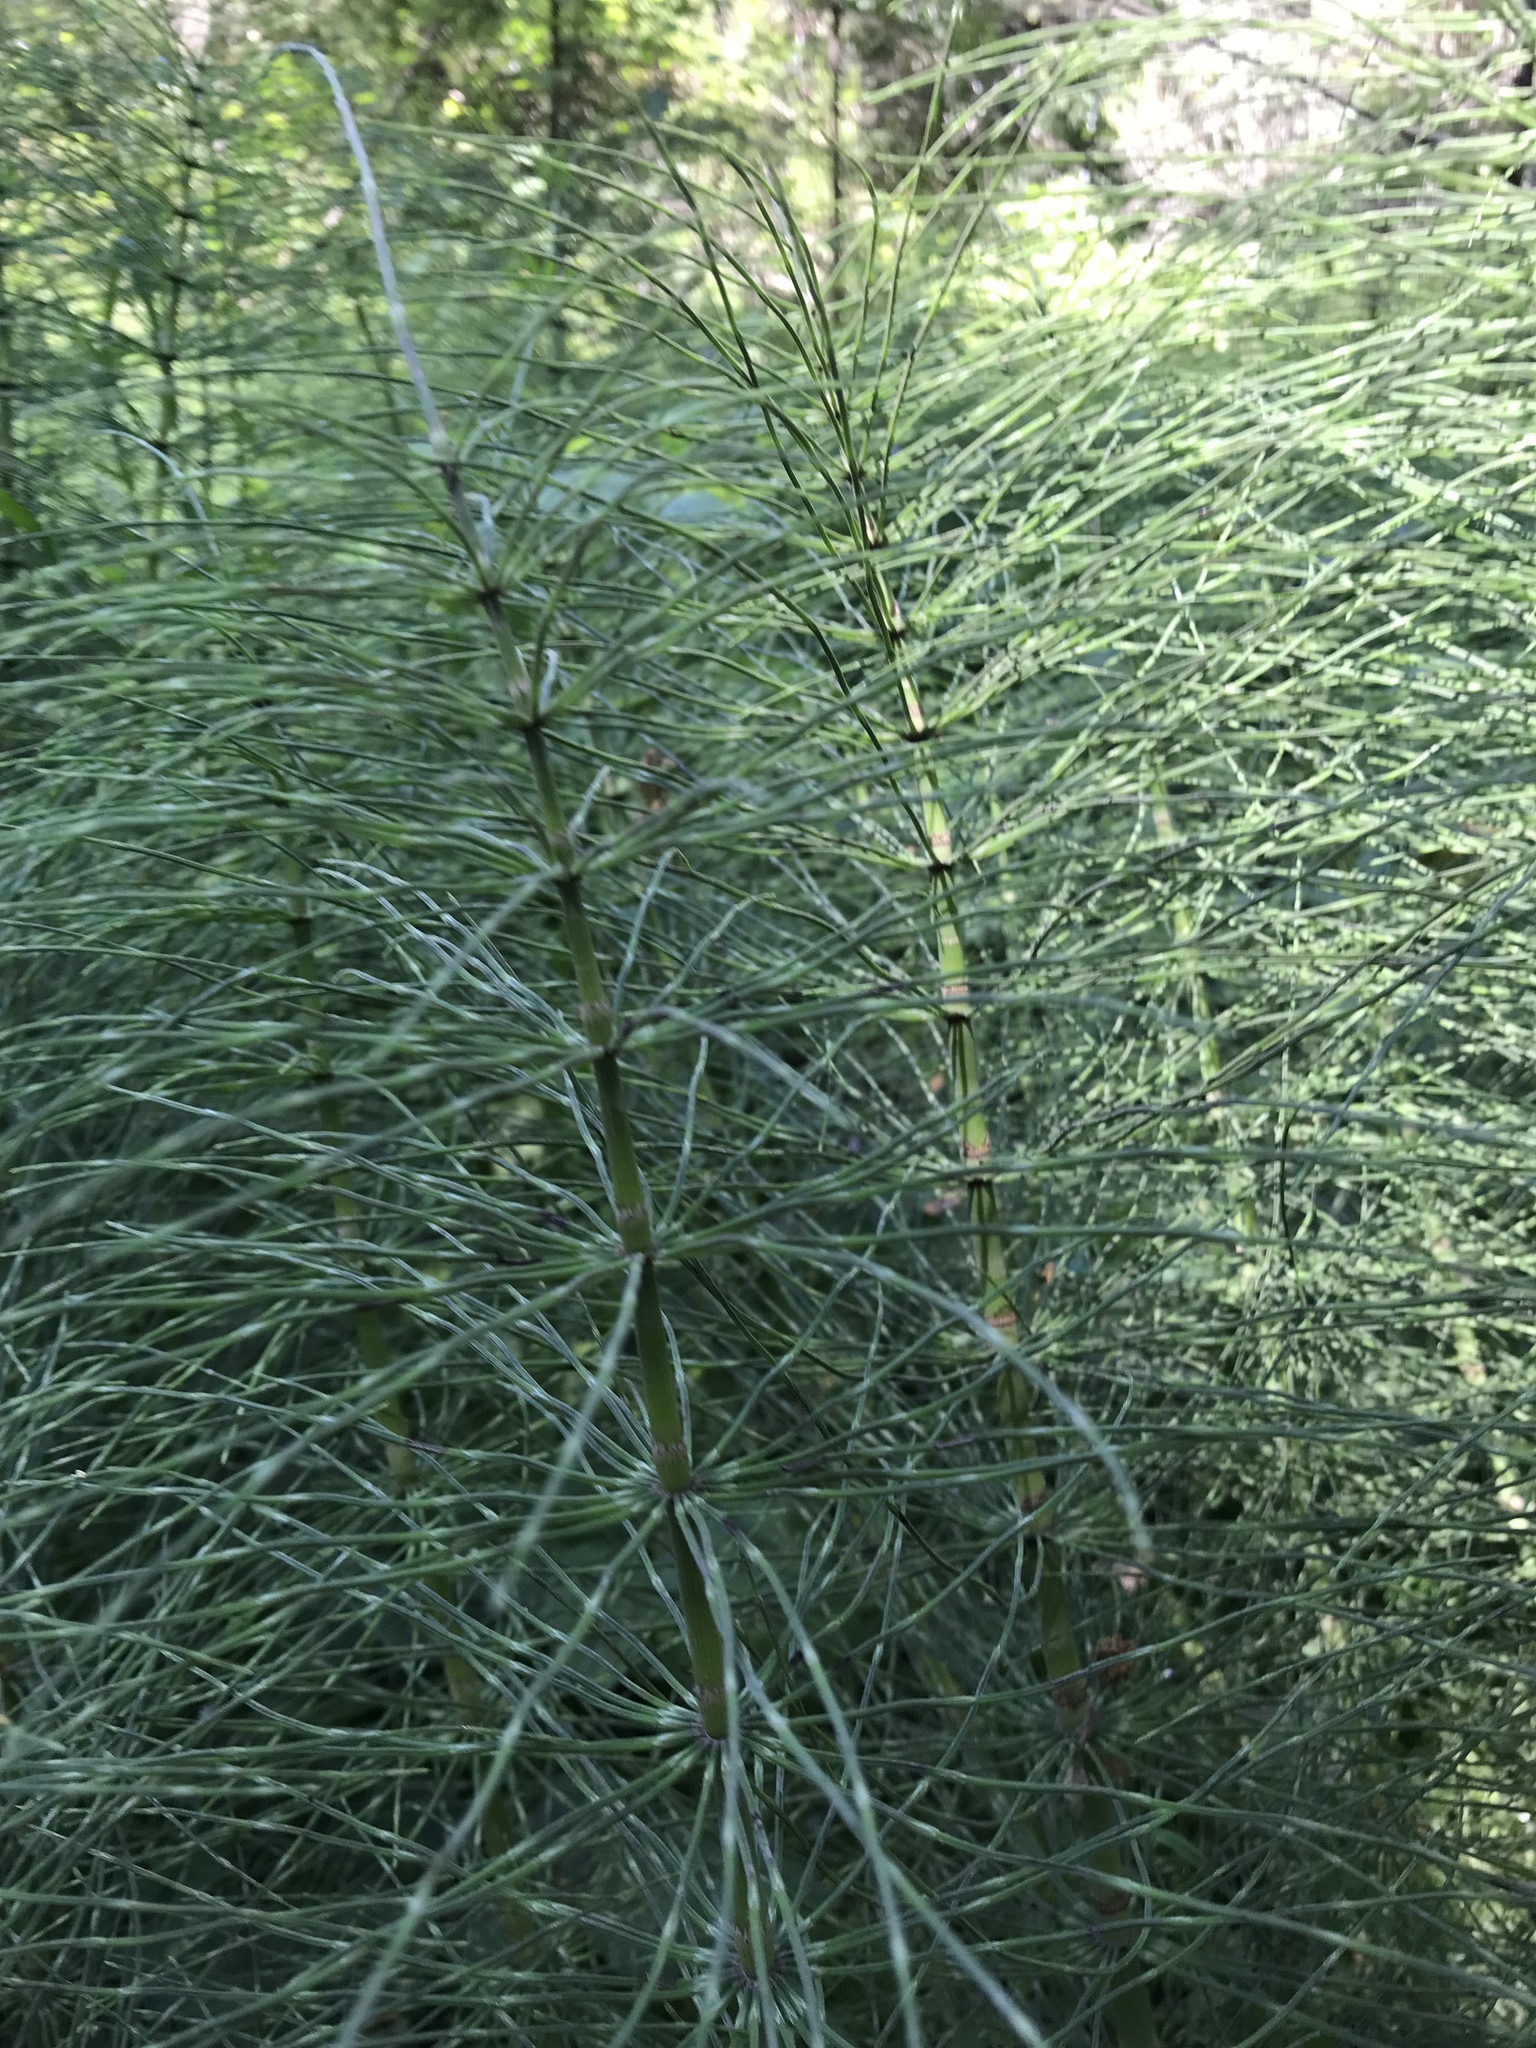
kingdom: Plantae
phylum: Tracheophyta
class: Polypodiopsida
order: Equisetales
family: Equisetaceae
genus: Equisetum
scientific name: Equisetum telmateia
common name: Great horsetail
